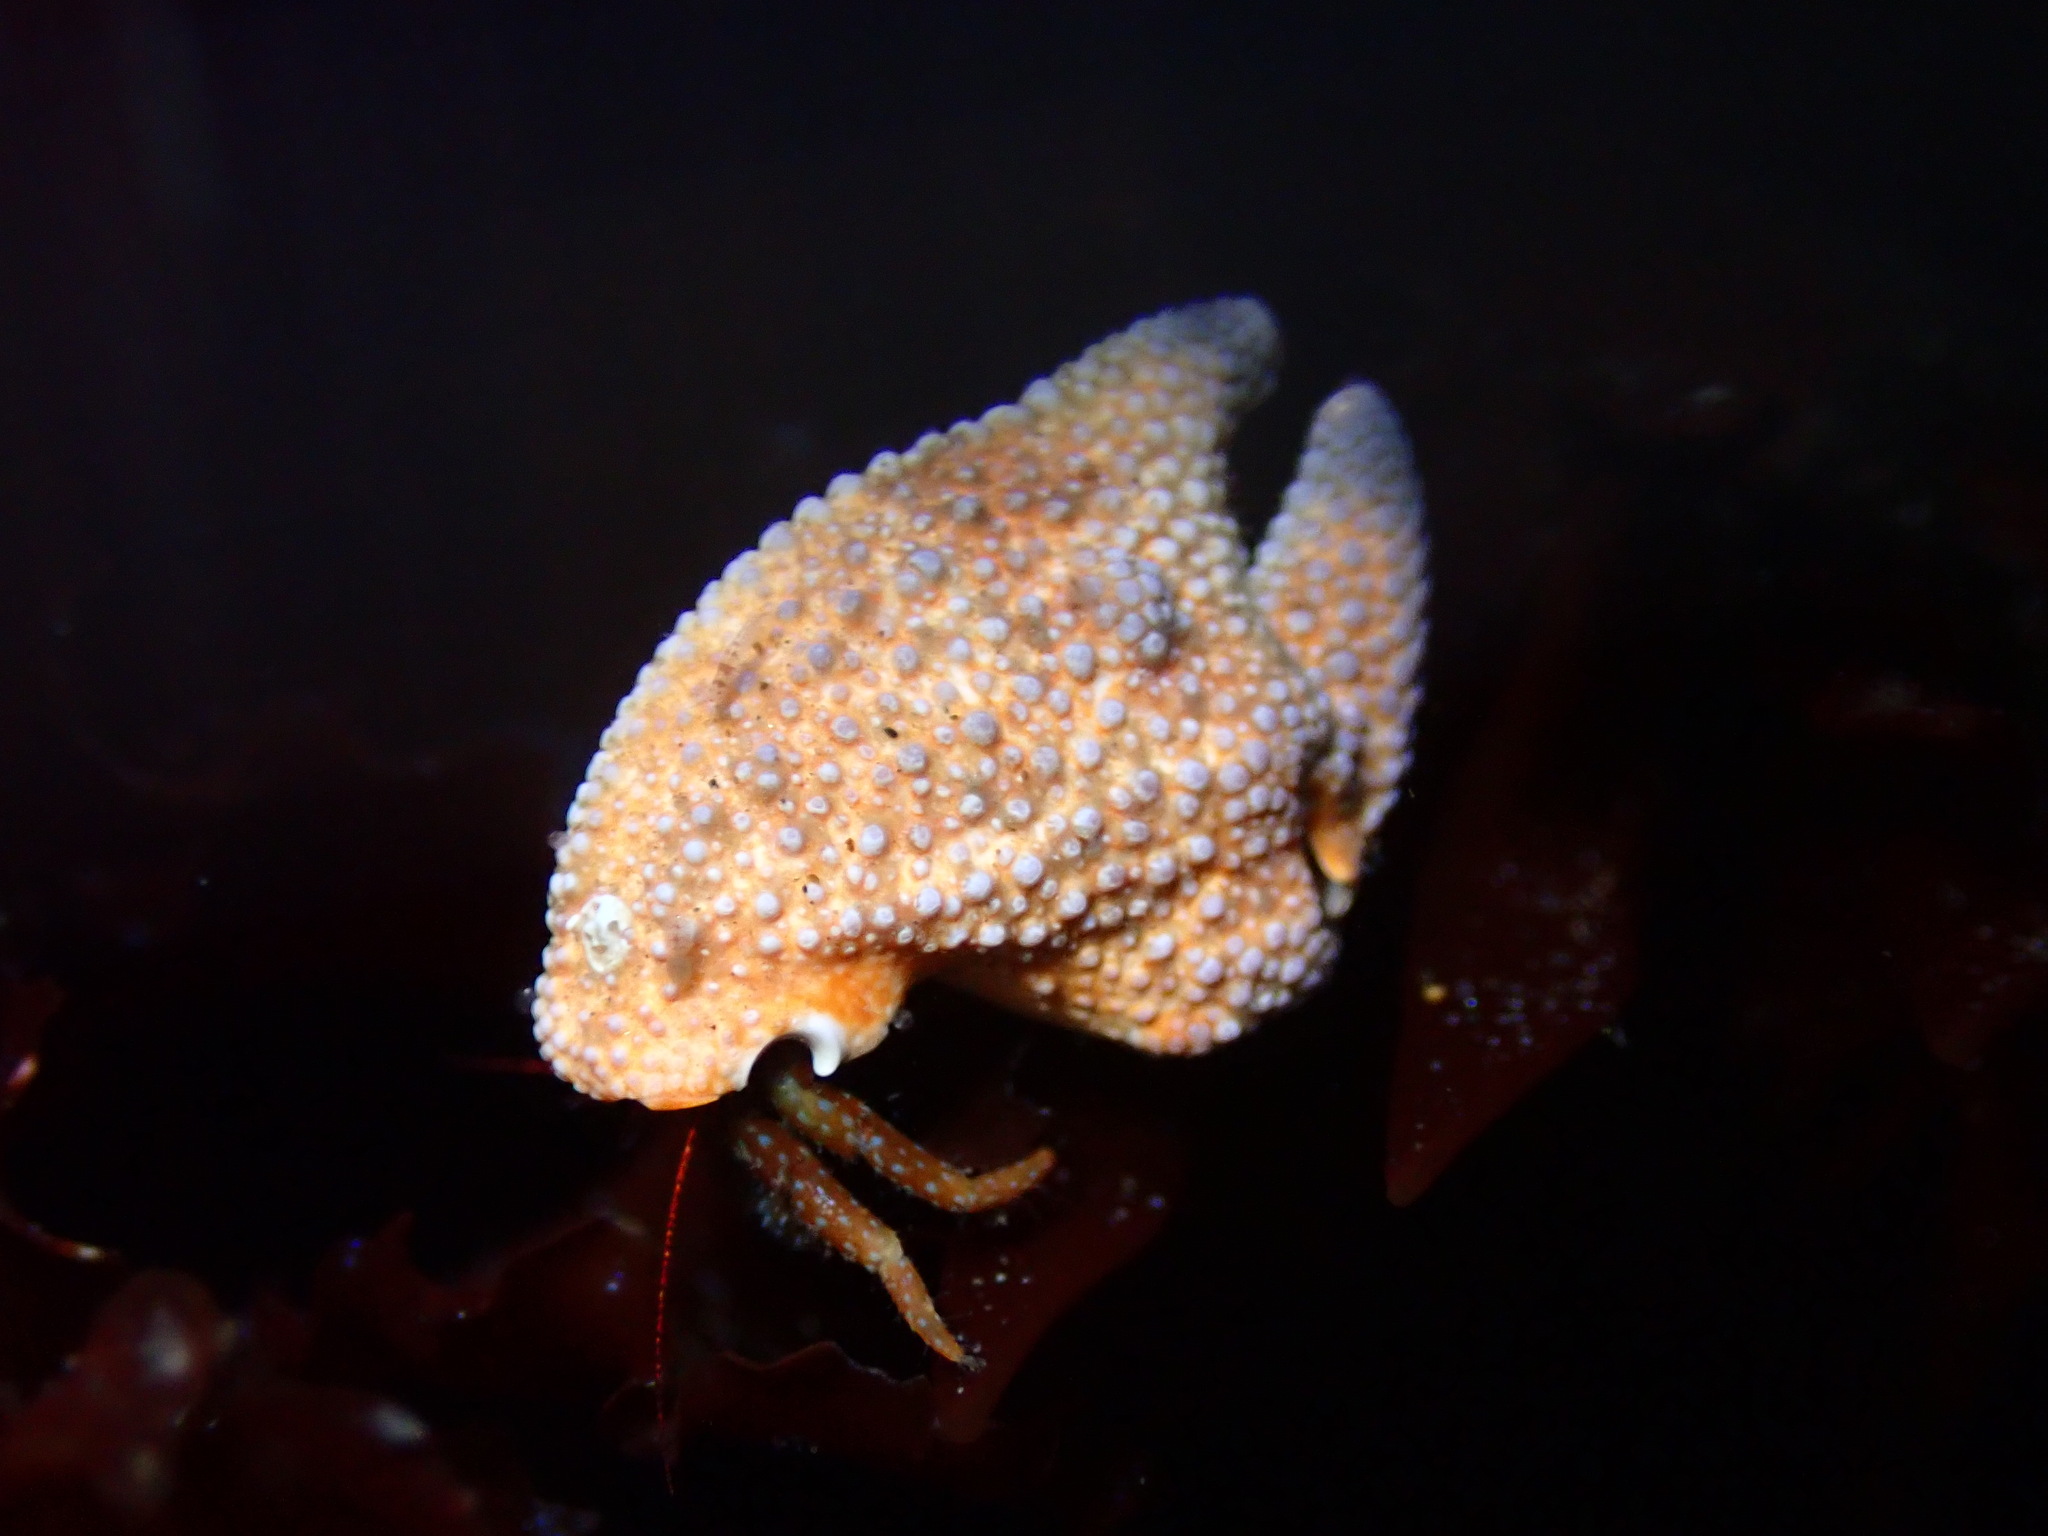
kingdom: Animalia
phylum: Arthropoda
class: Malacostraca
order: Decapoda
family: Paguridae
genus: Pagurus
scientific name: Pagurus granosimanus
